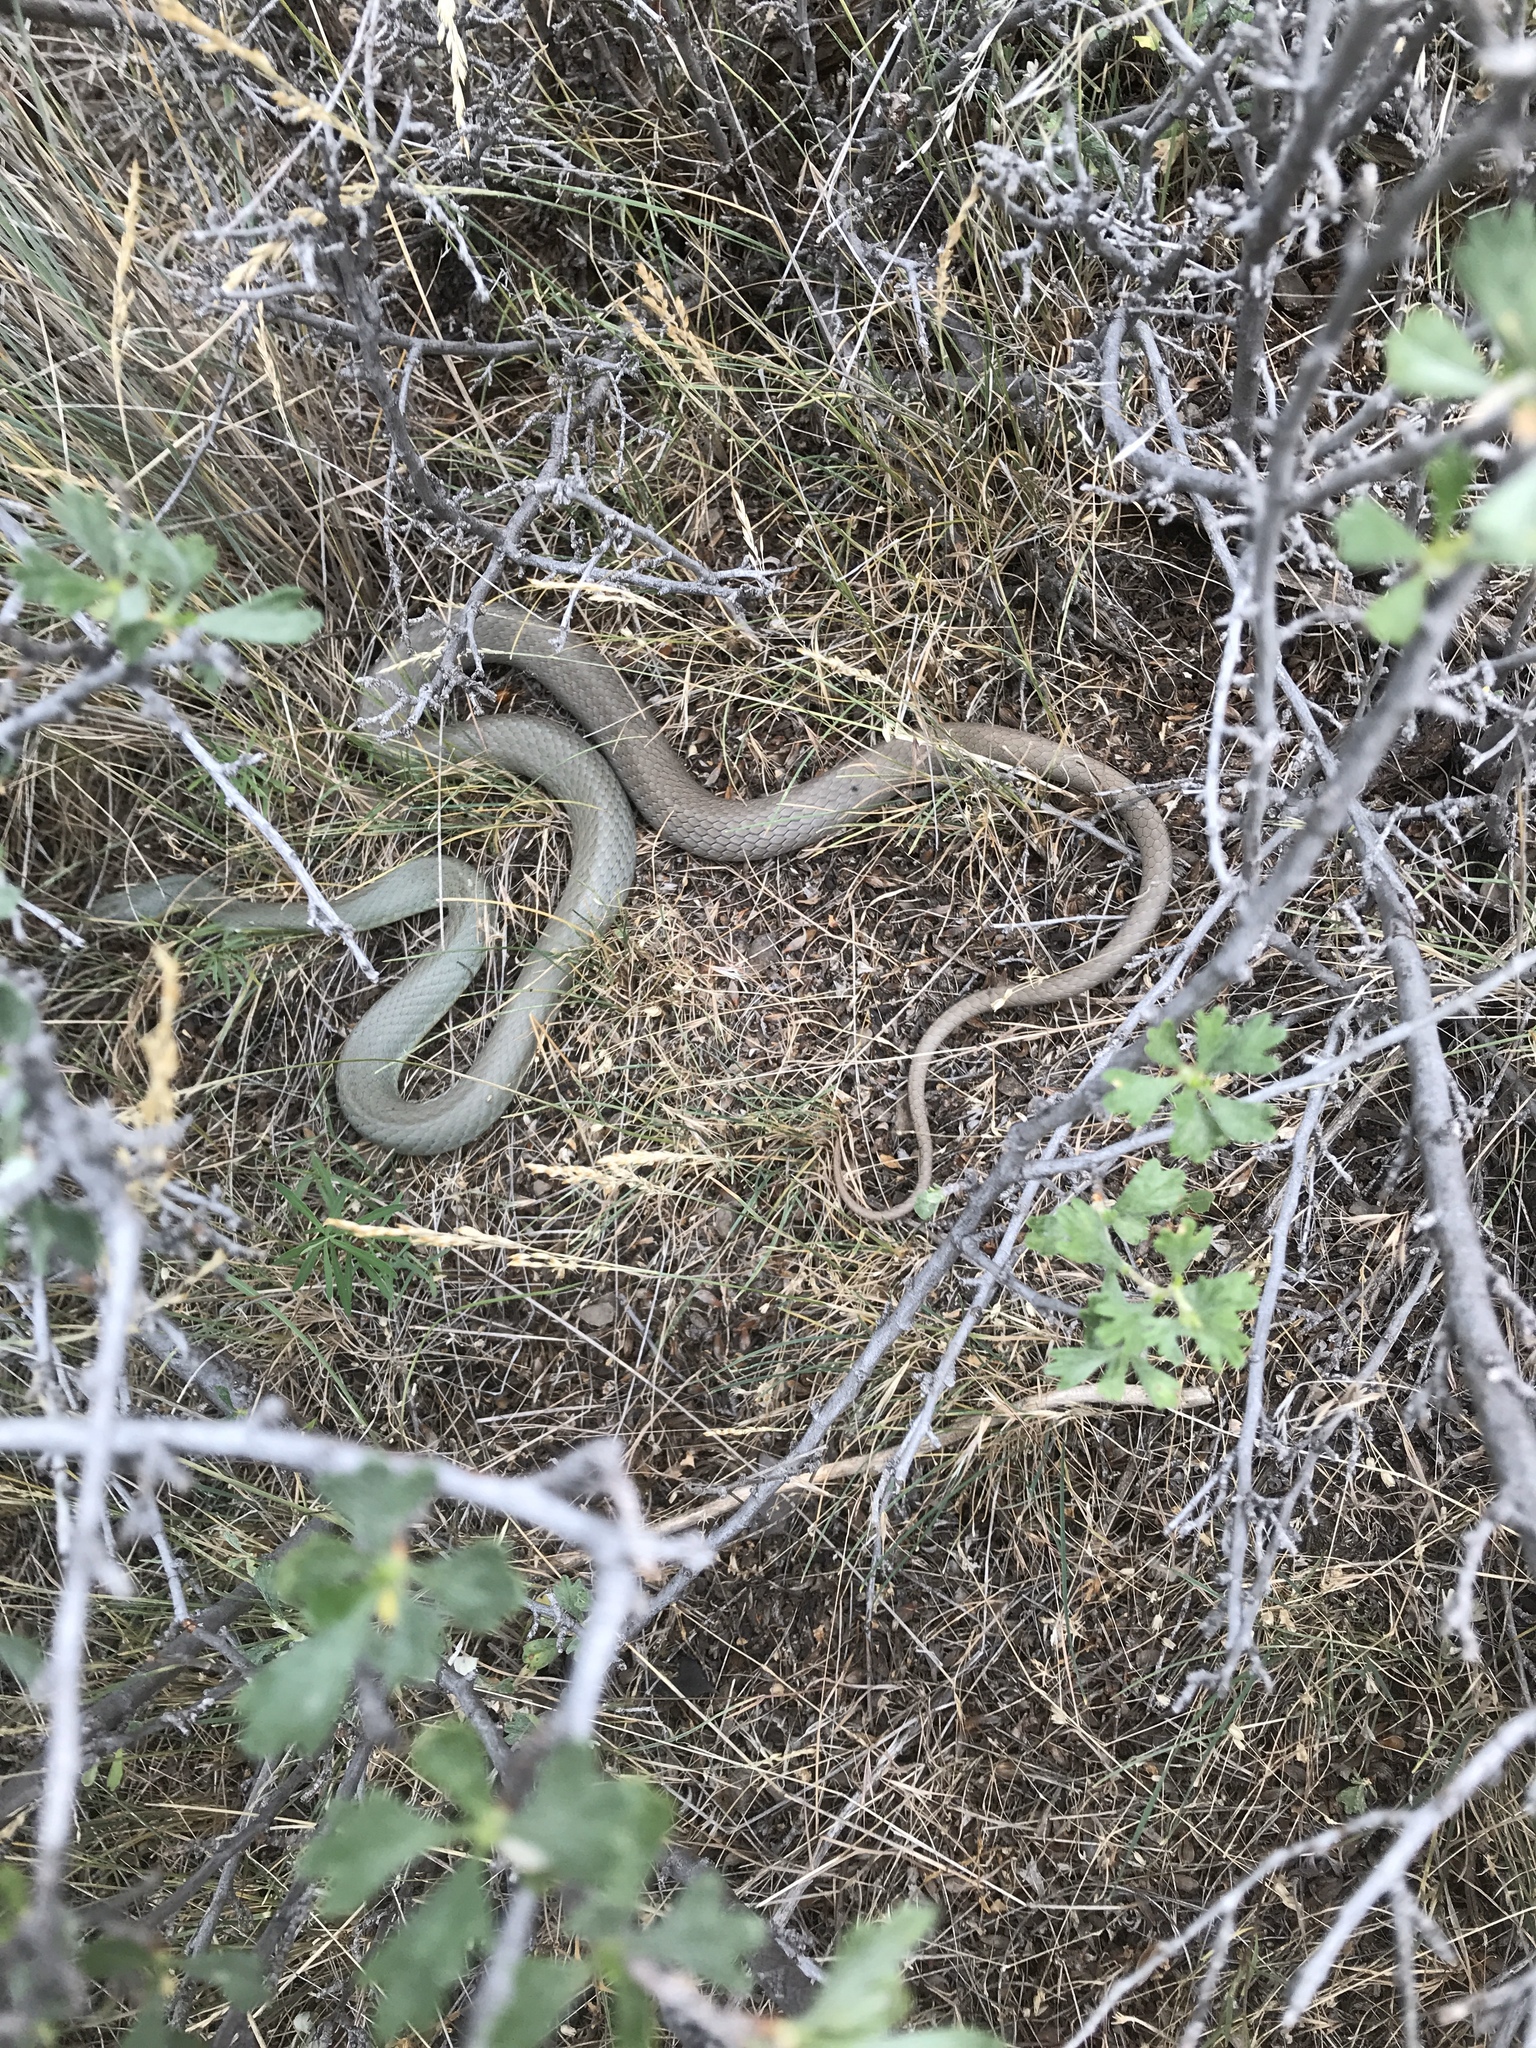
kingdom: Animalia
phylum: Chordata
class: Squamata
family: Colubridae
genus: Coluber
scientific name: Coluber constrictor
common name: Eastern racer
